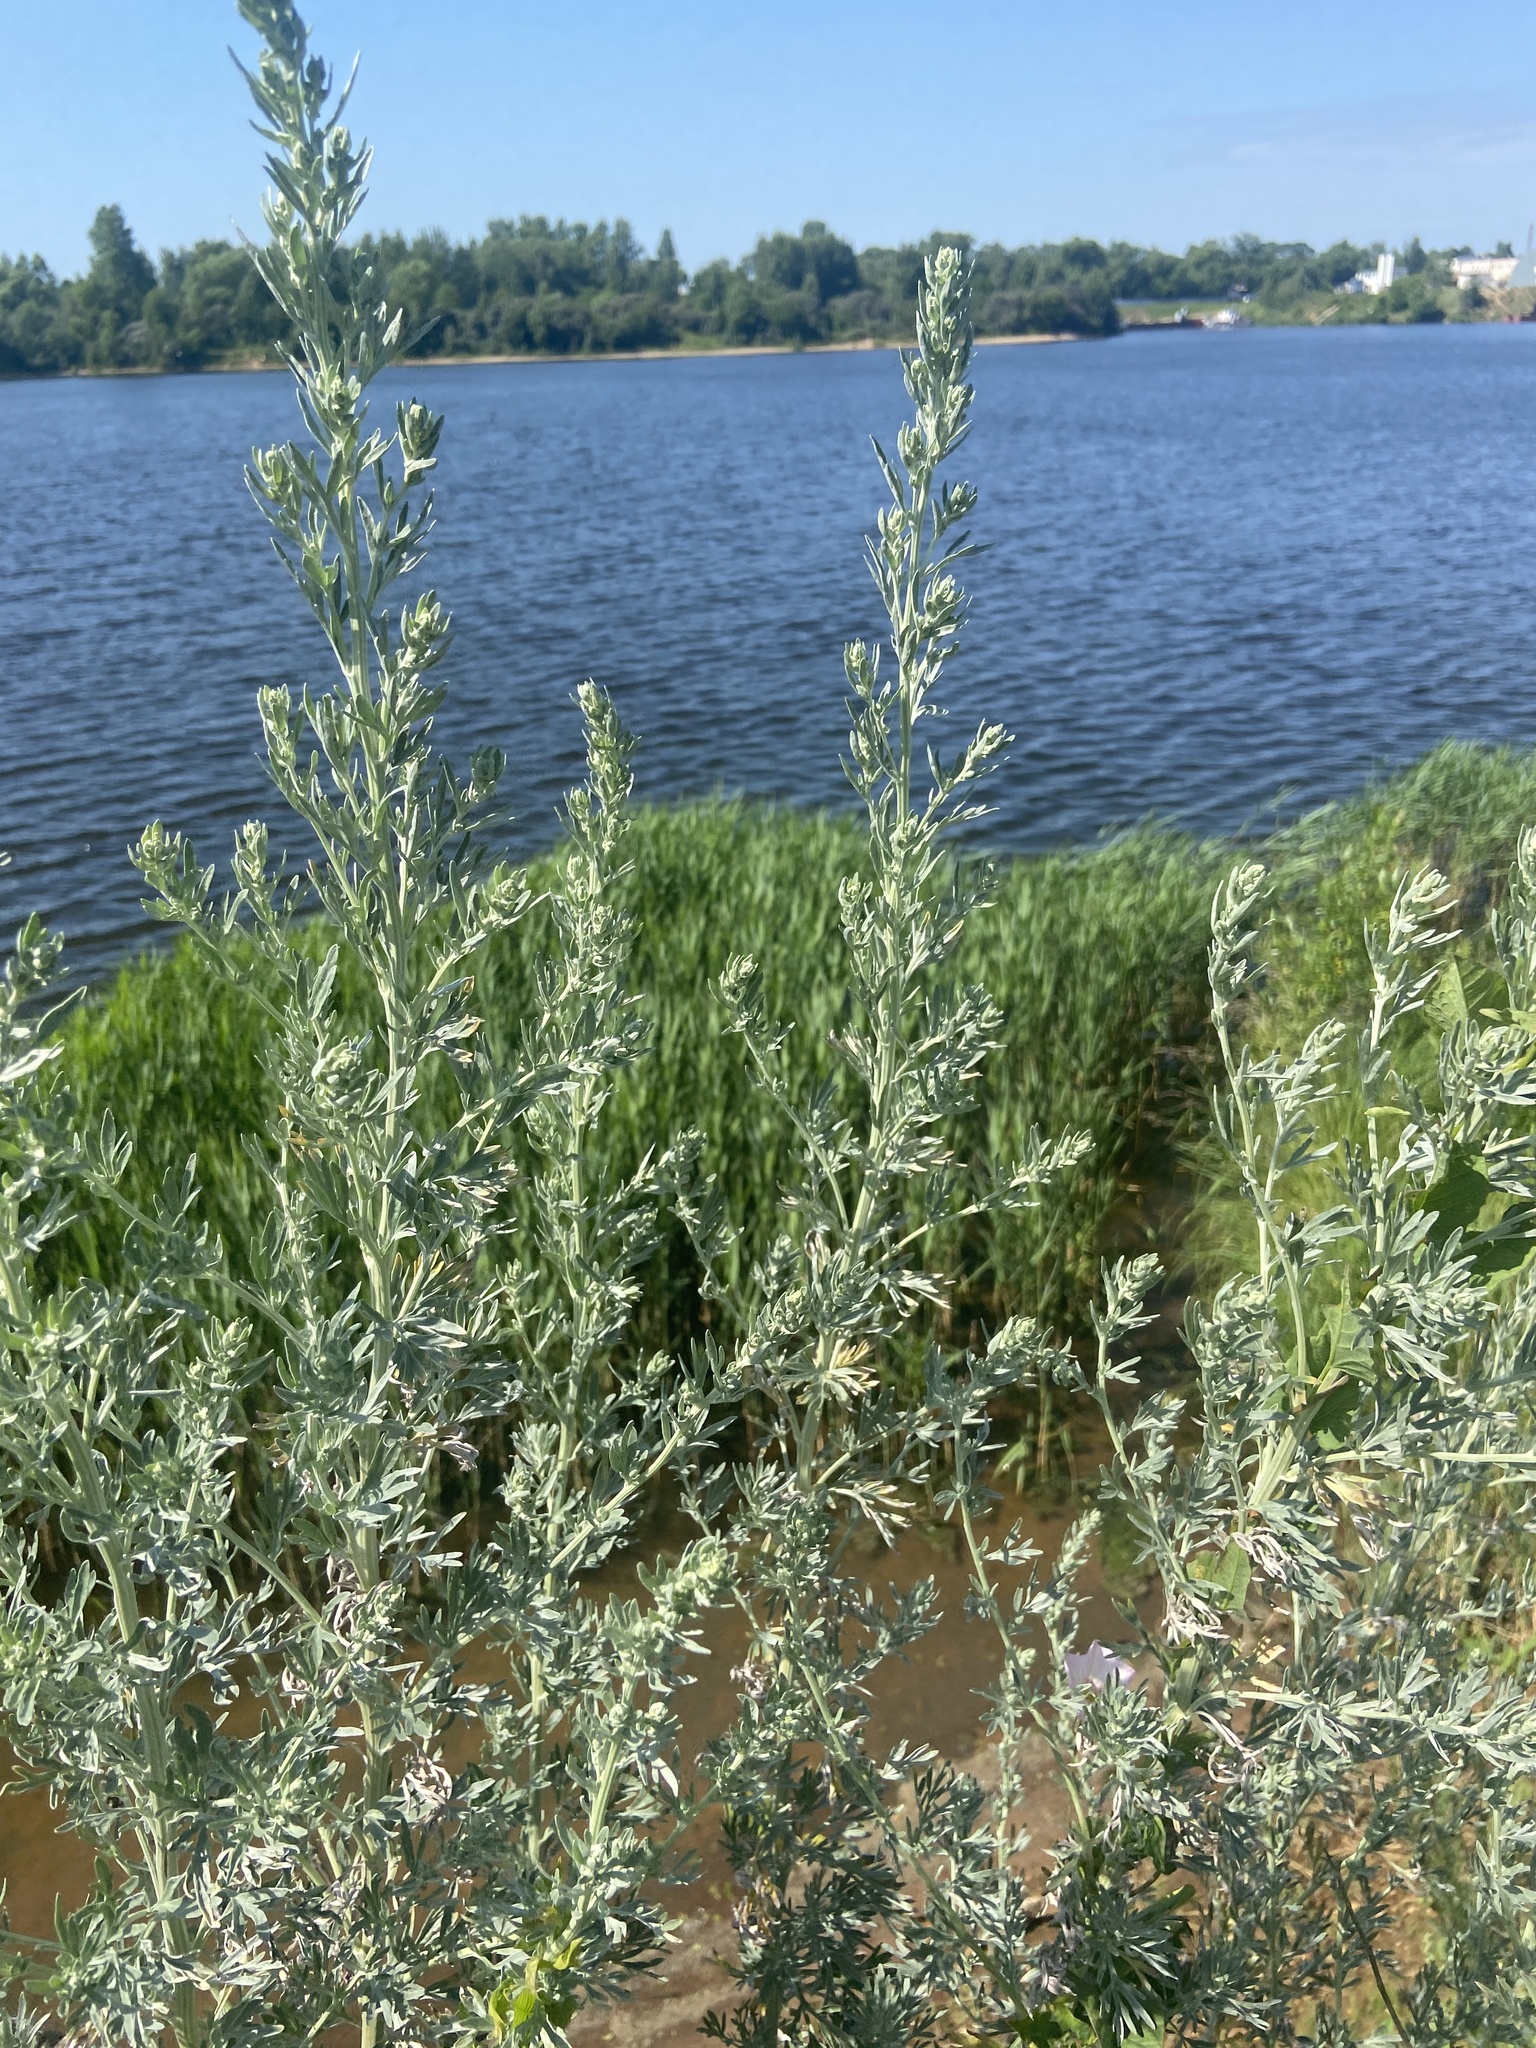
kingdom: Plantae
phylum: Tracheophyta
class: Magnoliopsida
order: Asterales
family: Asteraceae
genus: Artemisia
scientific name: Artemisia absinthium
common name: Wormwood
